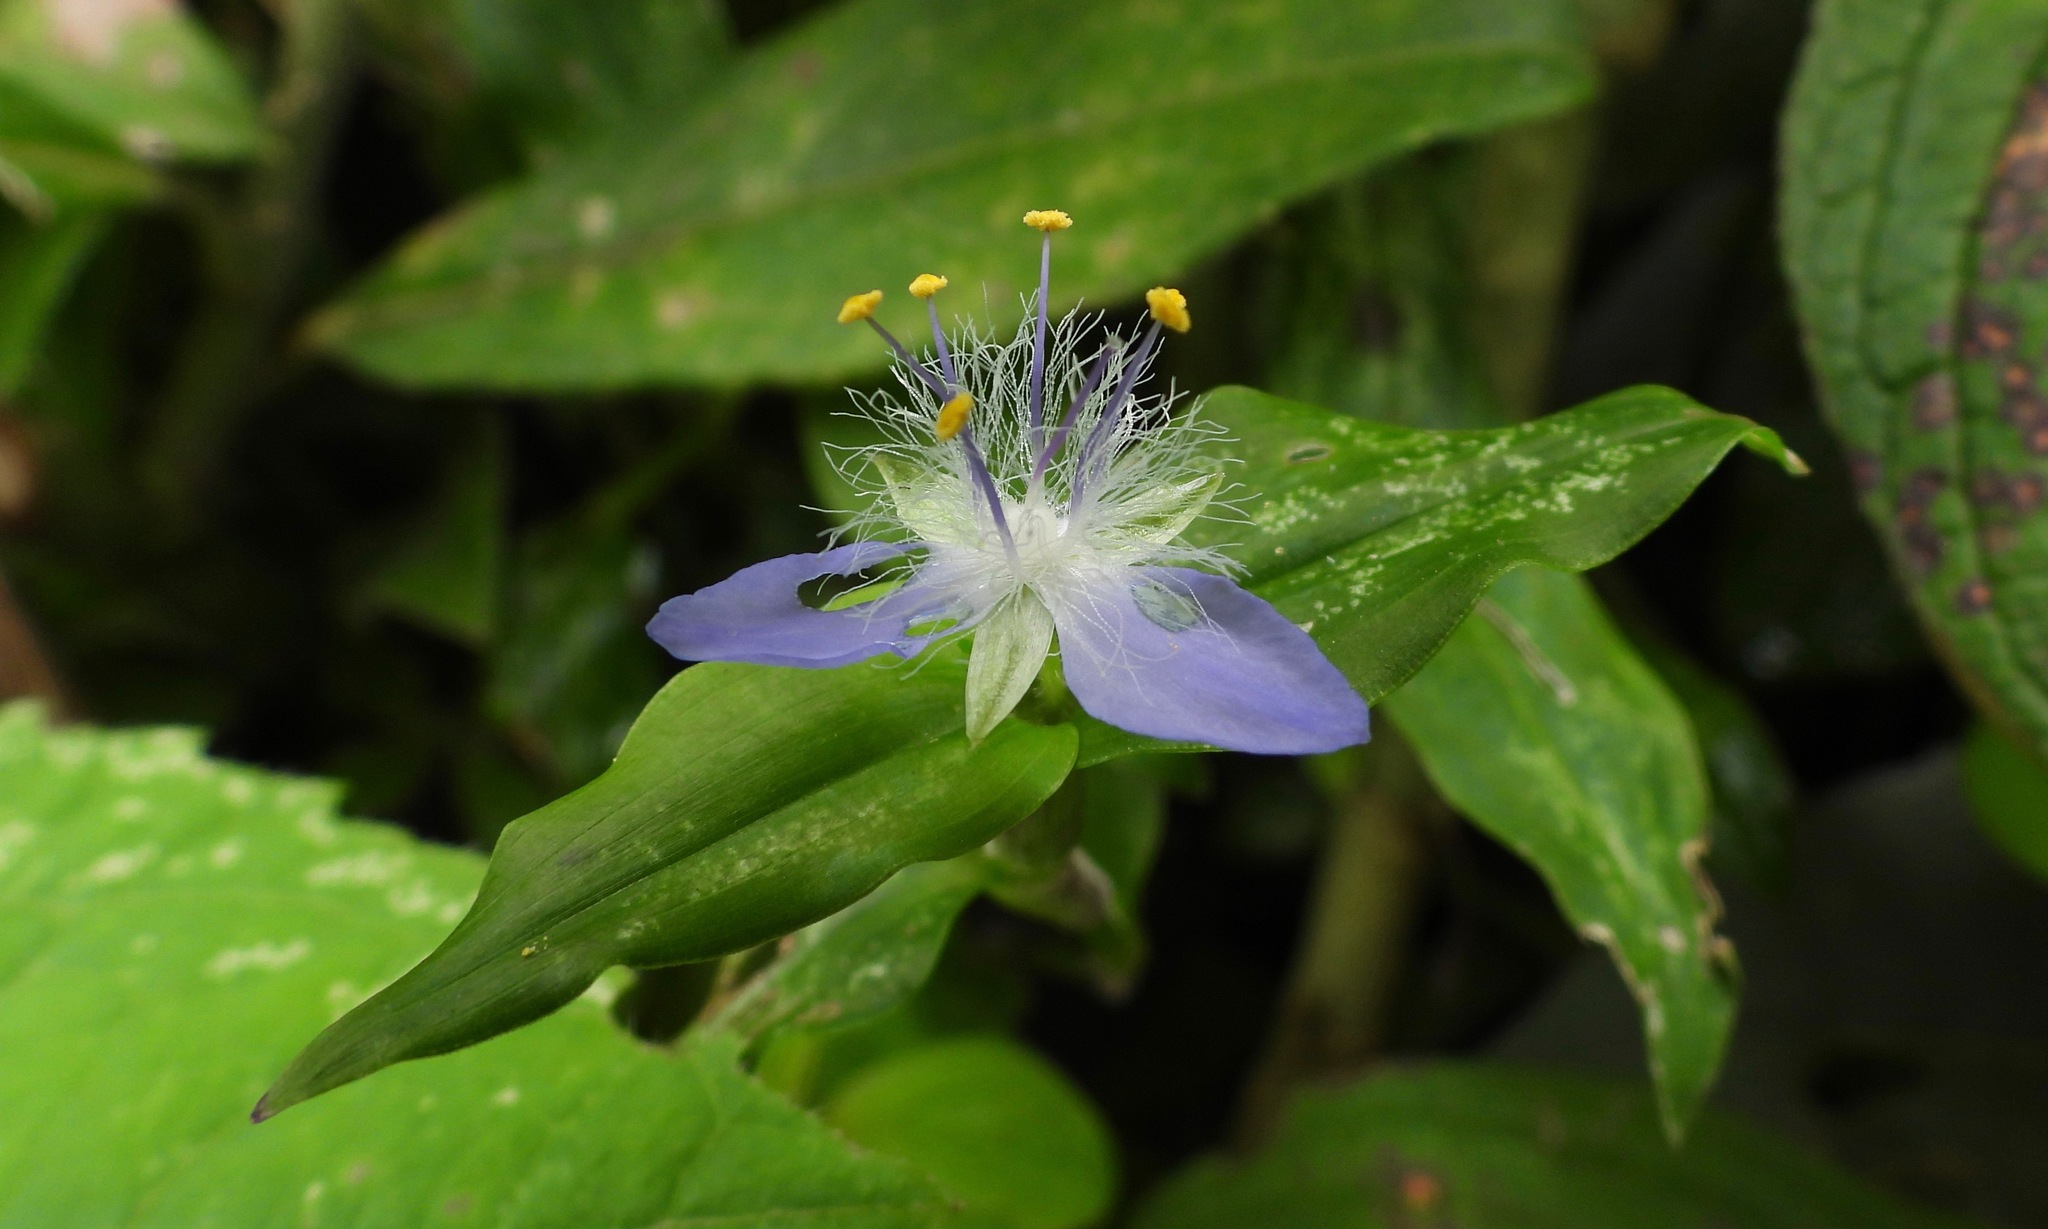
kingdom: Plantae
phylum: Tracheophyta
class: Liliopsida
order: Commelinales
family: Commelinaceae
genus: Elasis
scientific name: Elasis guatemalensis
